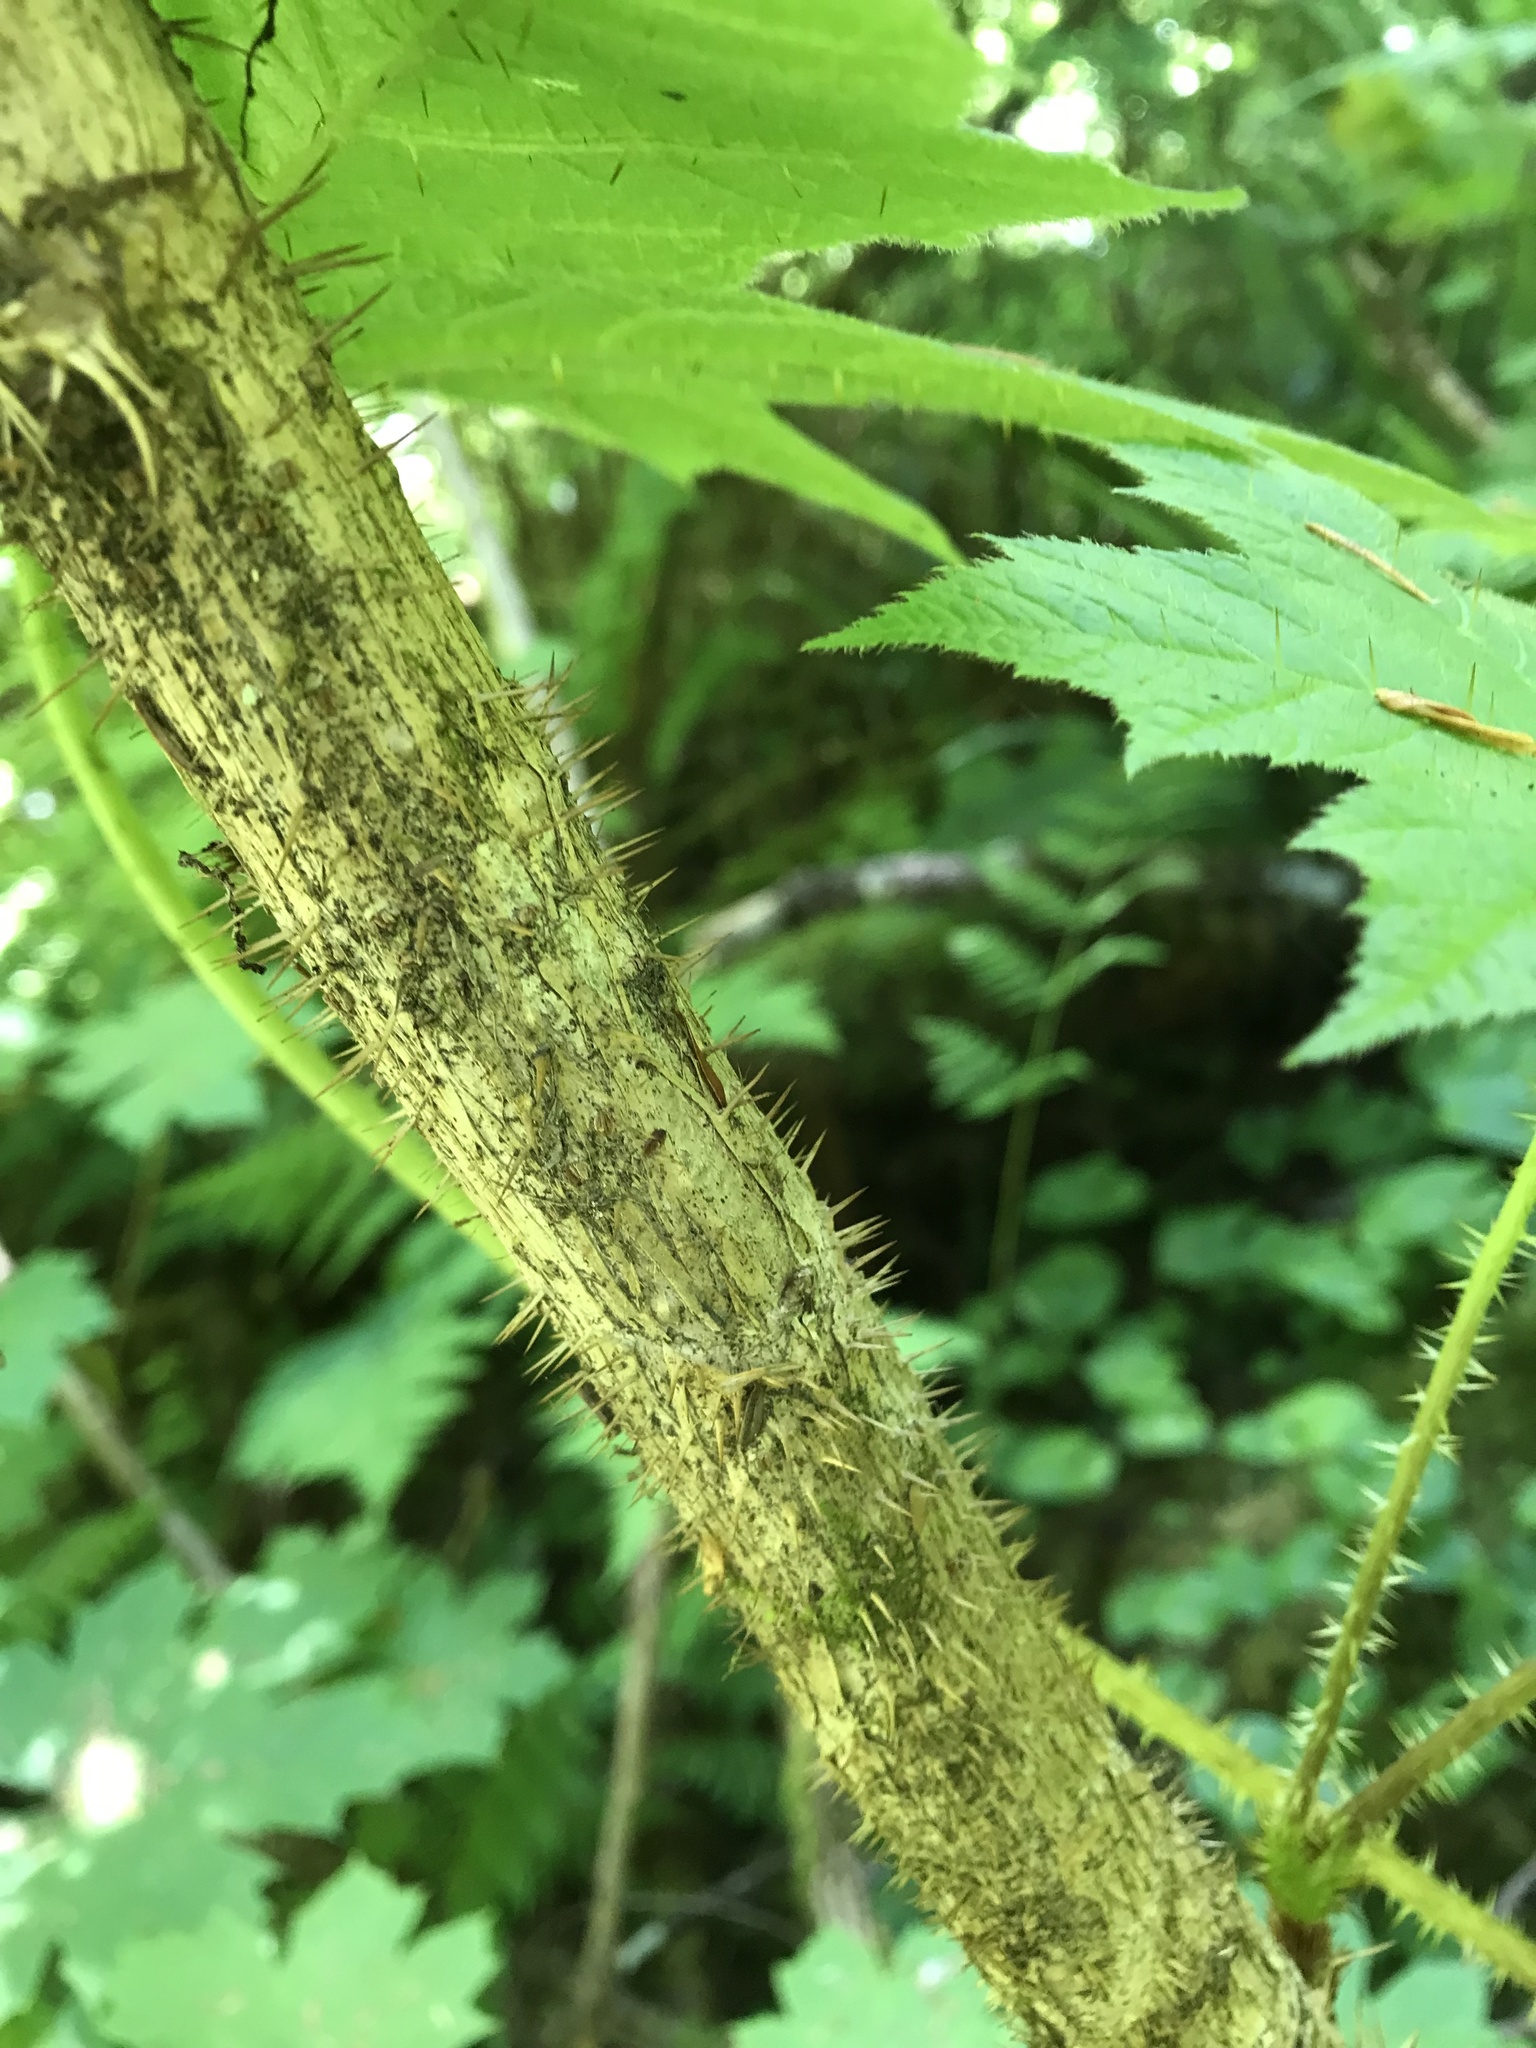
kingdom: Plantae
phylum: Tracheophyta
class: Magnoliopsida
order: Apiales
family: Araliaceae
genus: Oplopanax
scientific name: Oplopanax horridus
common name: Devil's walking-stick
